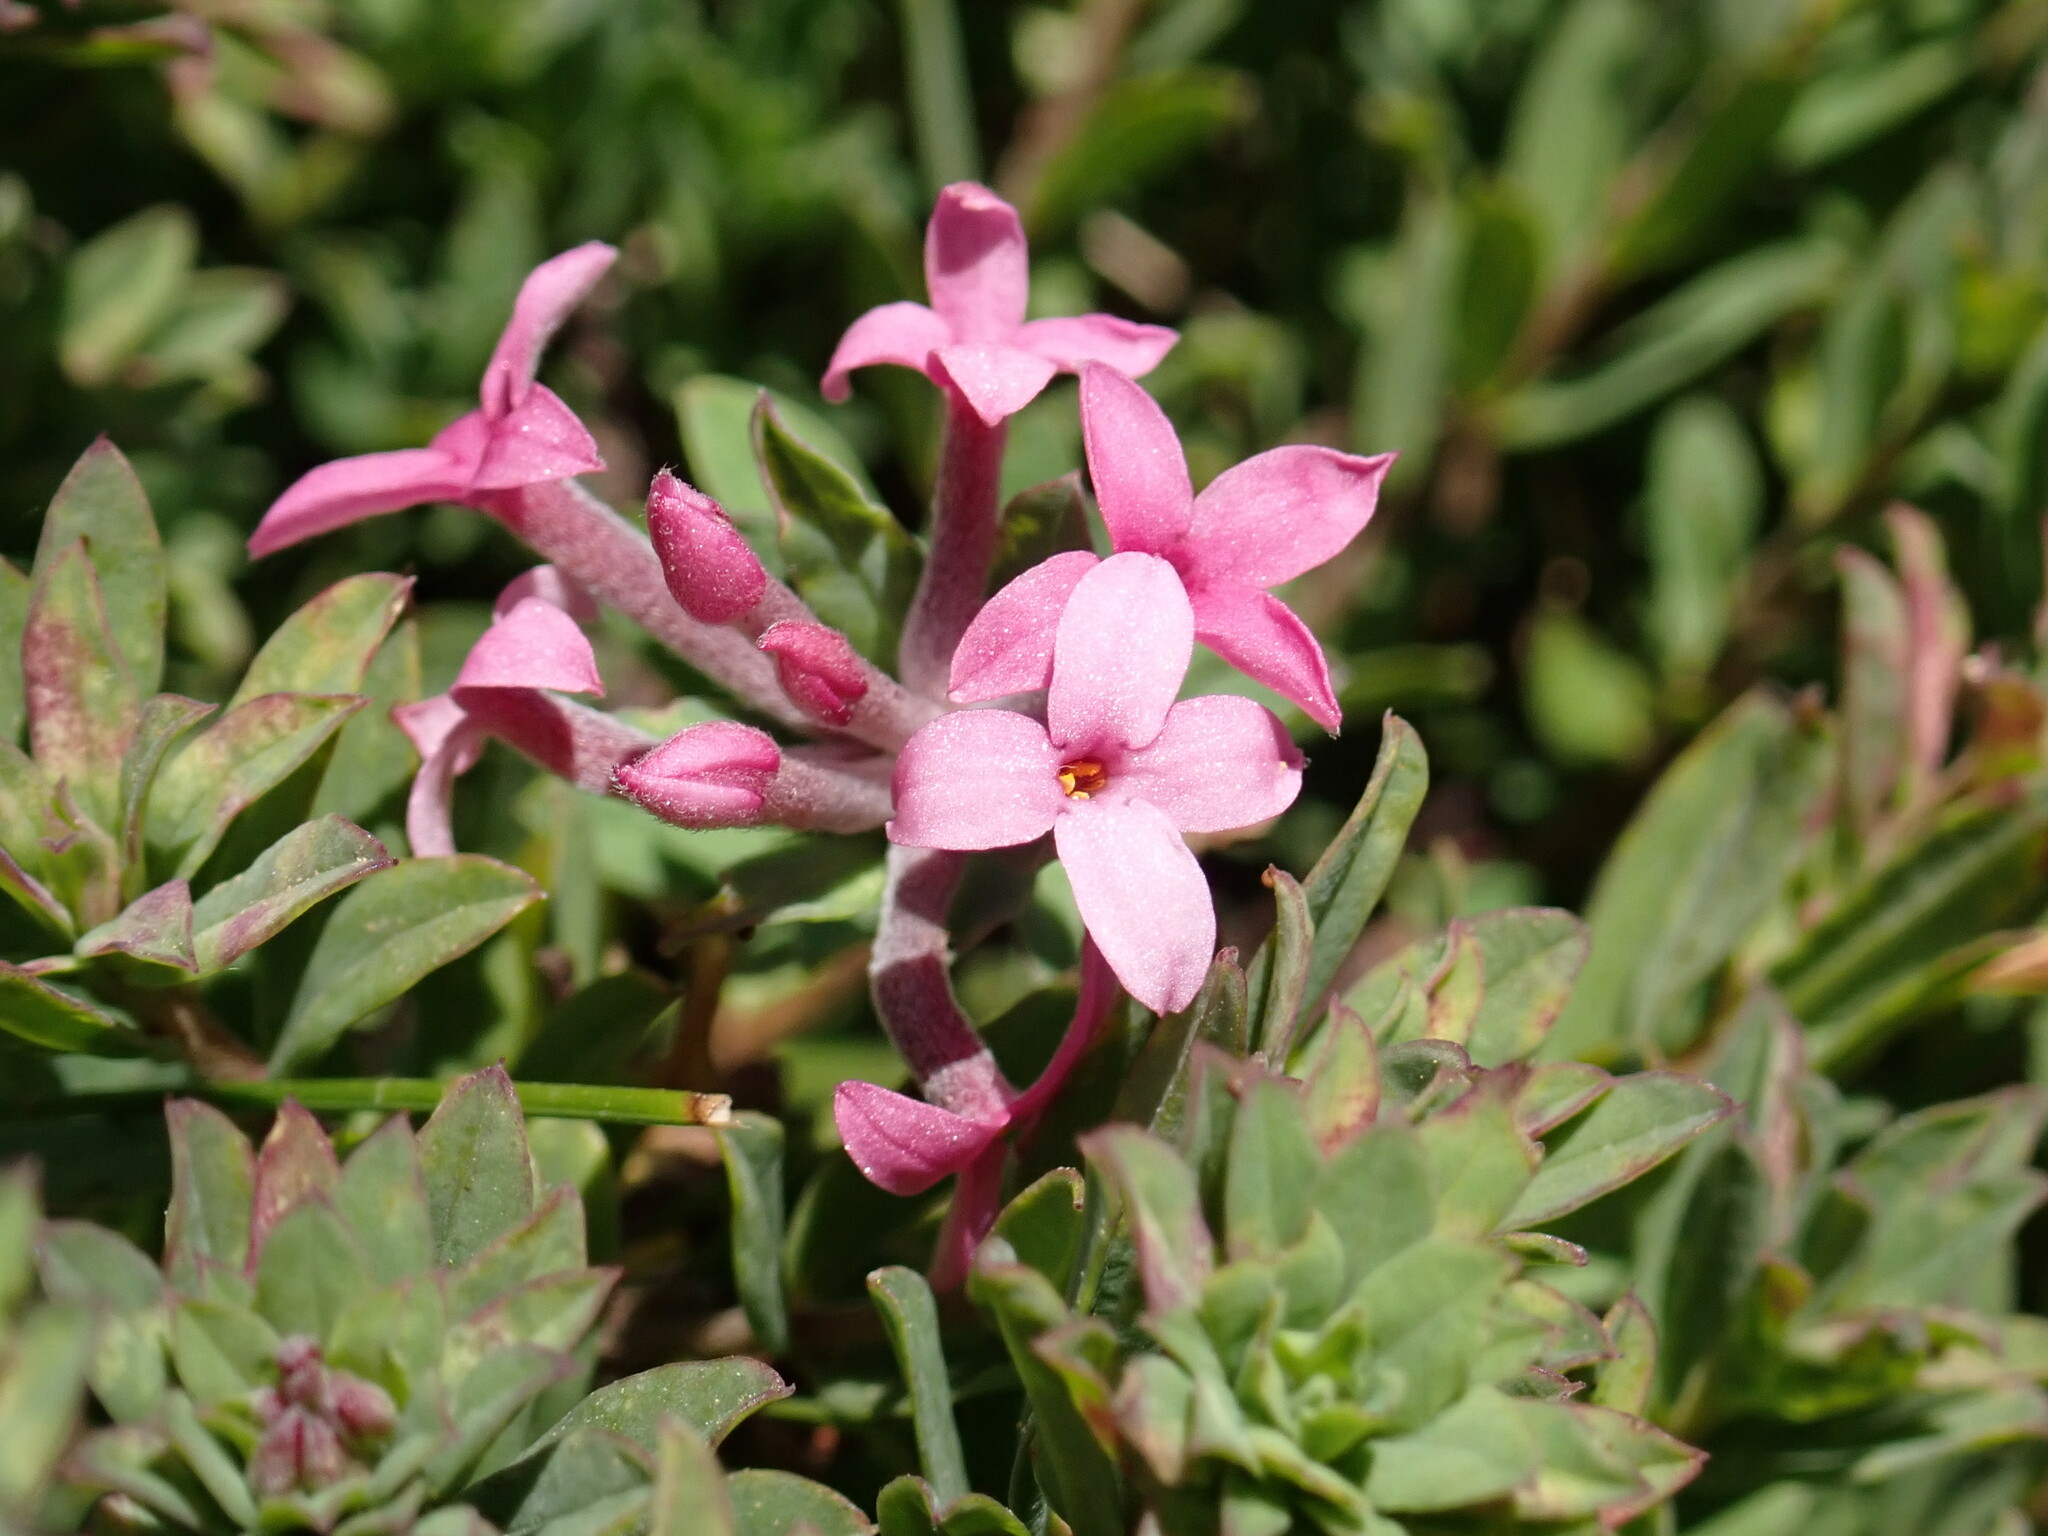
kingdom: Plantae
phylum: Tracheophyta
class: Magnoliopsida
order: Malvales
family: Thymelaeaceae
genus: Daphne
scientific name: Daphne cneorum
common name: Garland-flower
